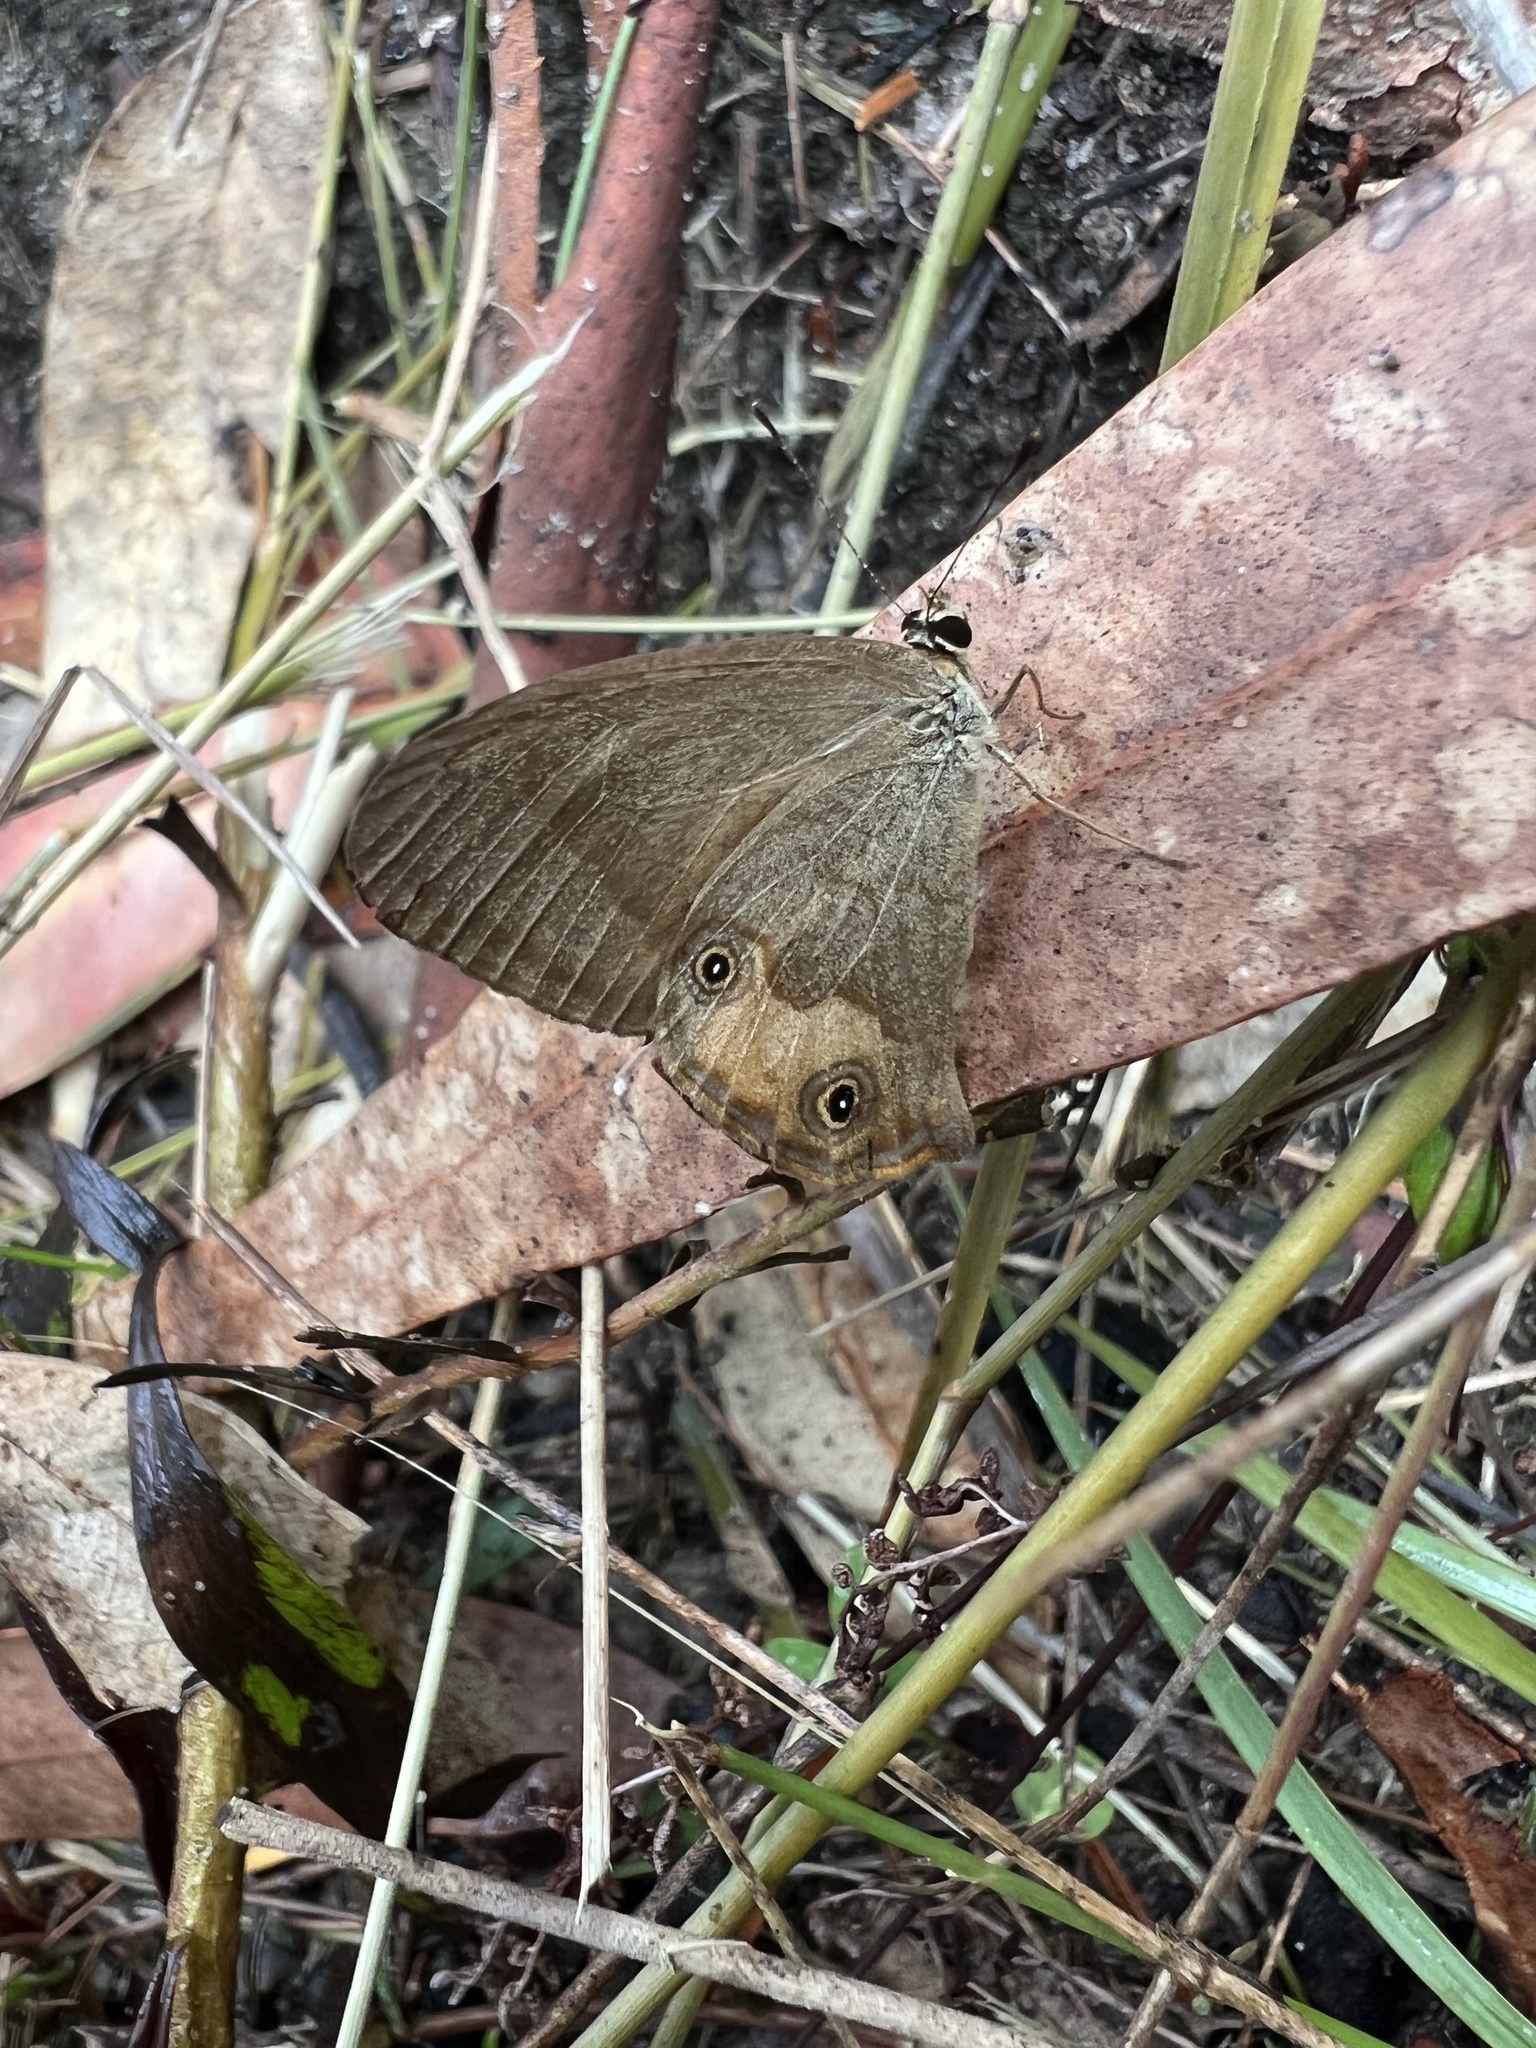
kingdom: Animalia
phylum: Arthropoda
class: Insecta
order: Lepidoptera
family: Nymphalidae
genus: Hypocysta
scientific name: Hypocysta metirius
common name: Brown ringlet
